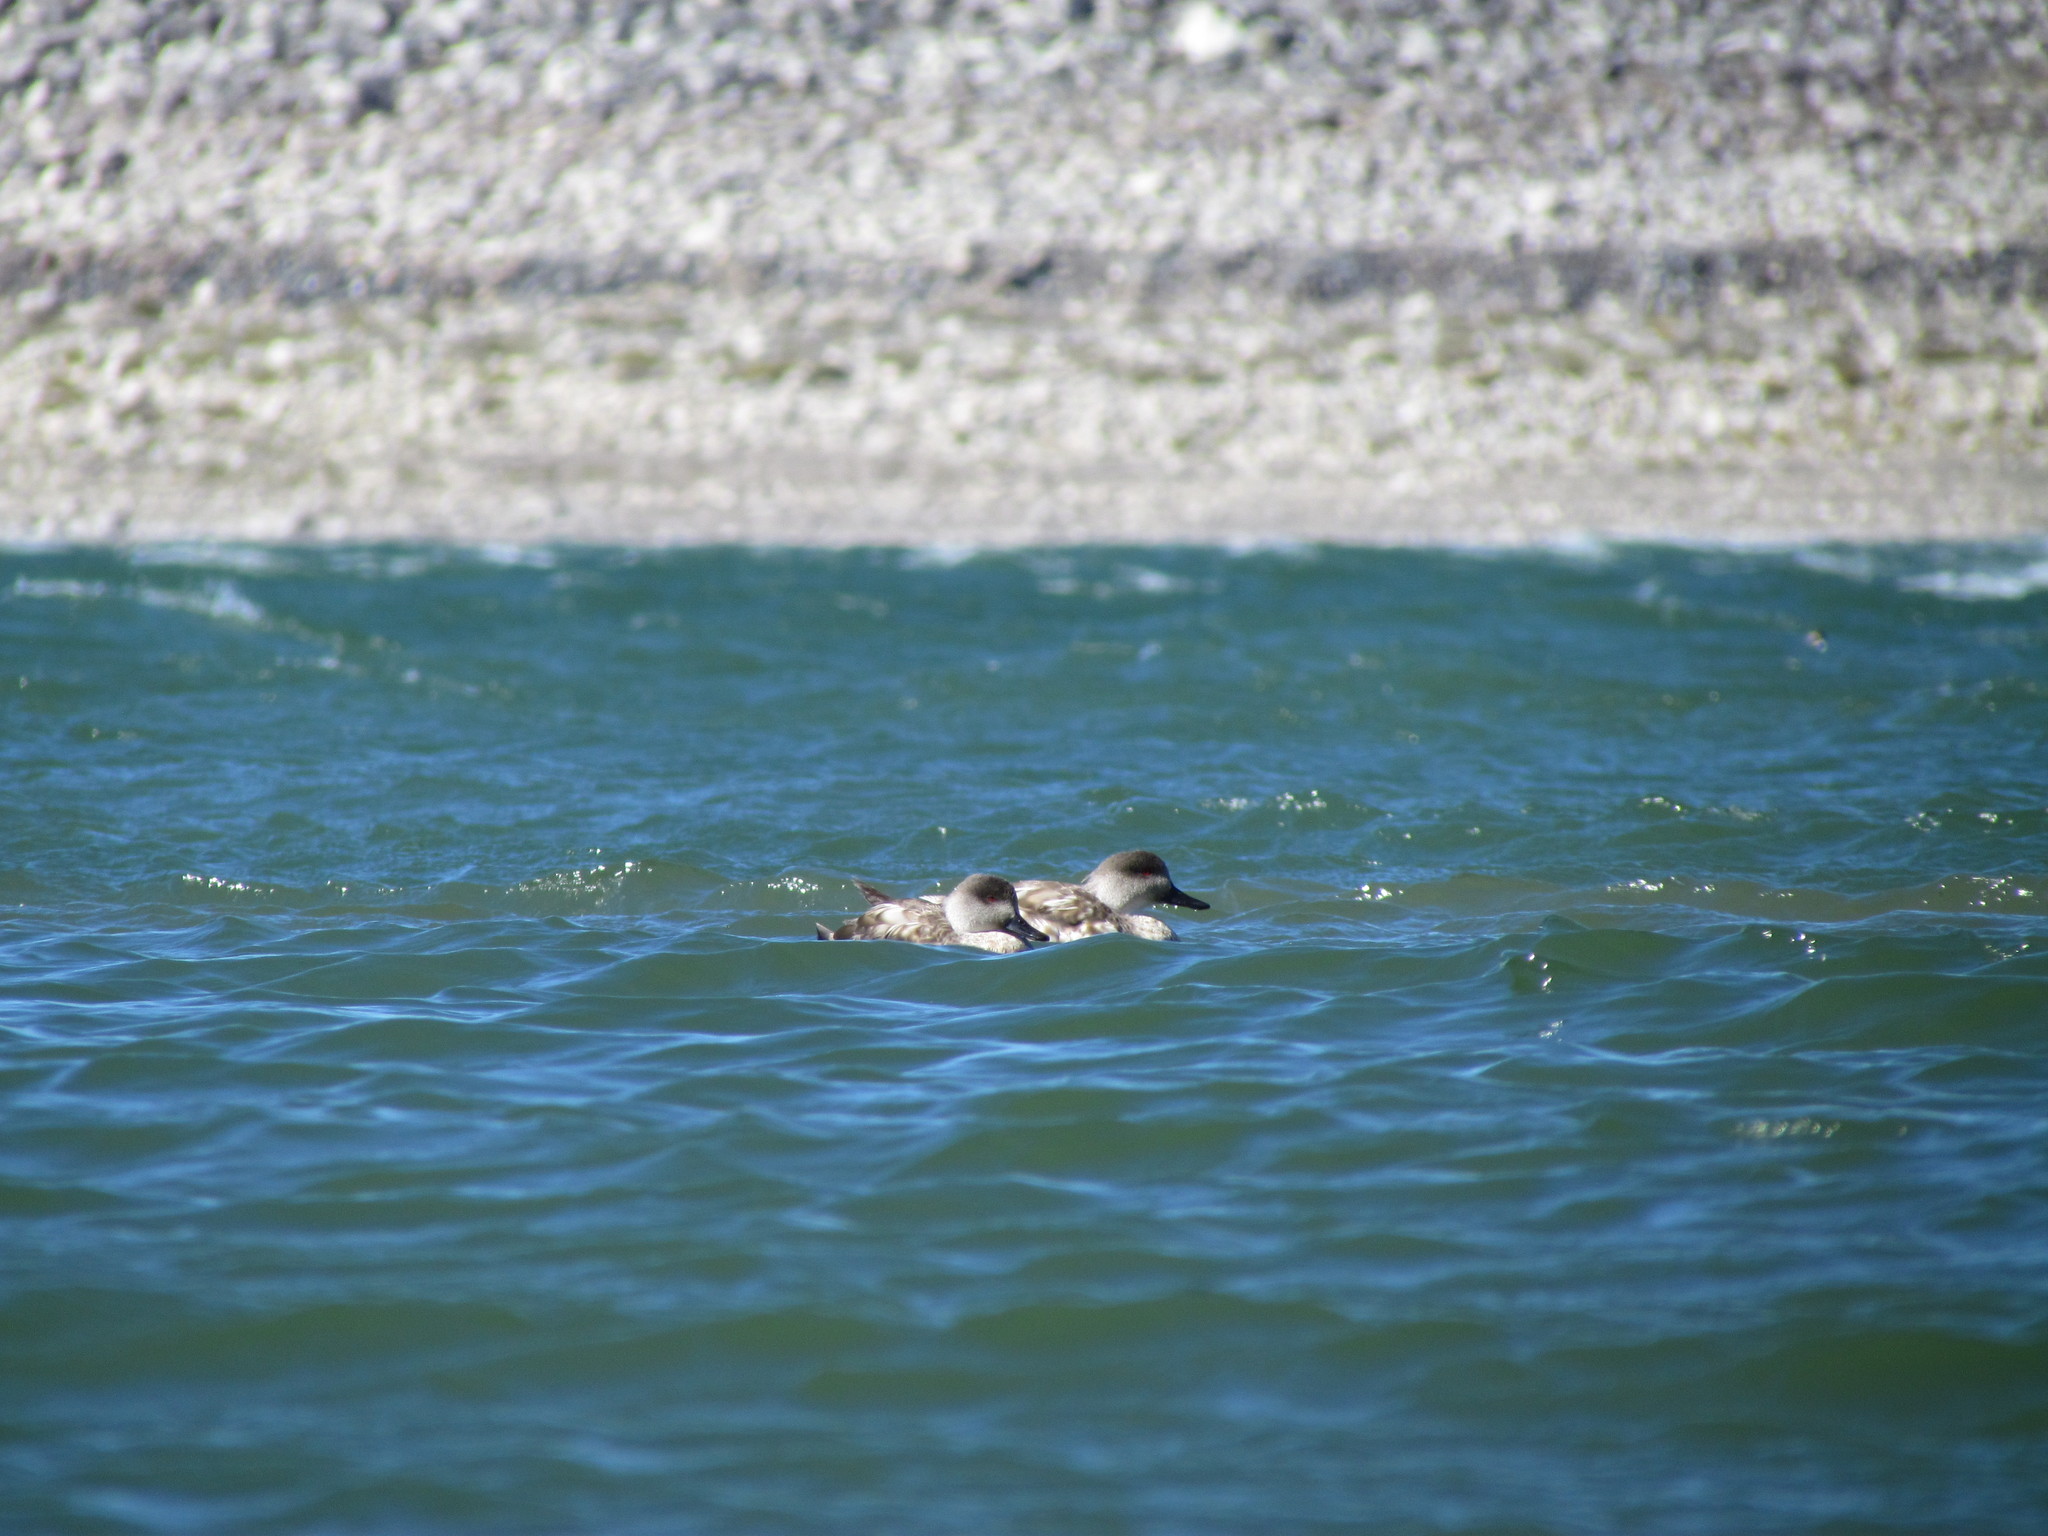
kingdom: Animalia
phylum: Chordata
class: Aves
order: Anseriformes
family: Anatidae
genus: Lophonetta
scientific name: Lophonetta specularioides
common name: Crested duck
